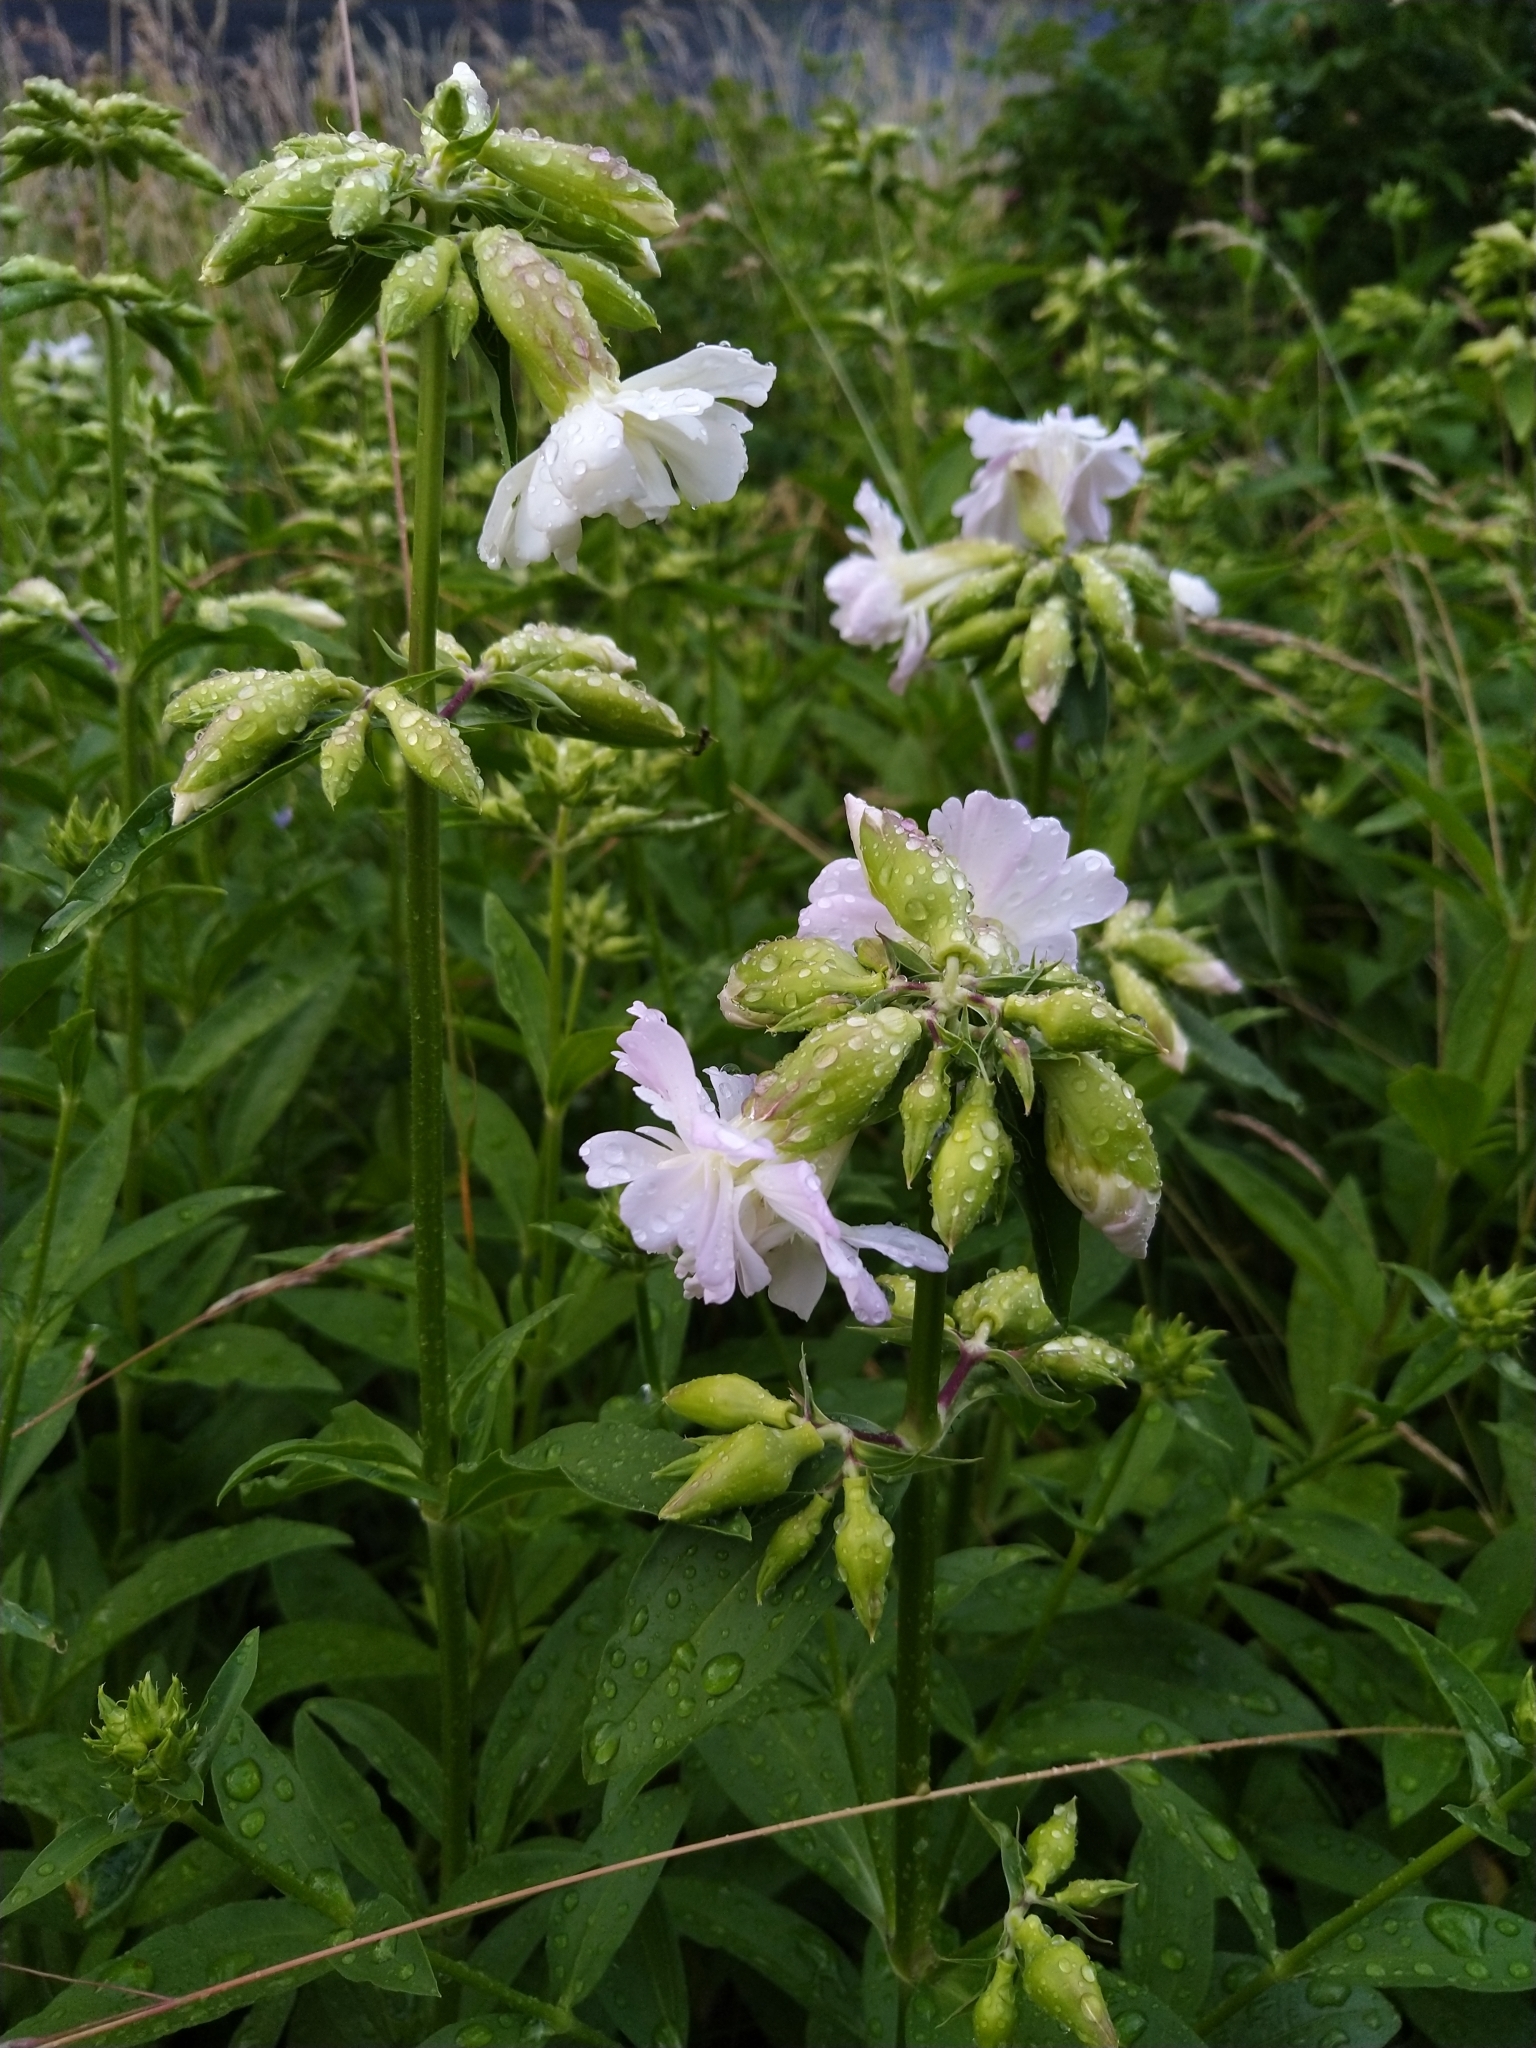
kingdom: Plantae
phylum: Tracheophyta
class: Magnoliopsida
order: Caryophyllales
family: Caryophyllaceae
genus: Saponaria
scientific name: Saponaria officinalis
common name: Soapwort
